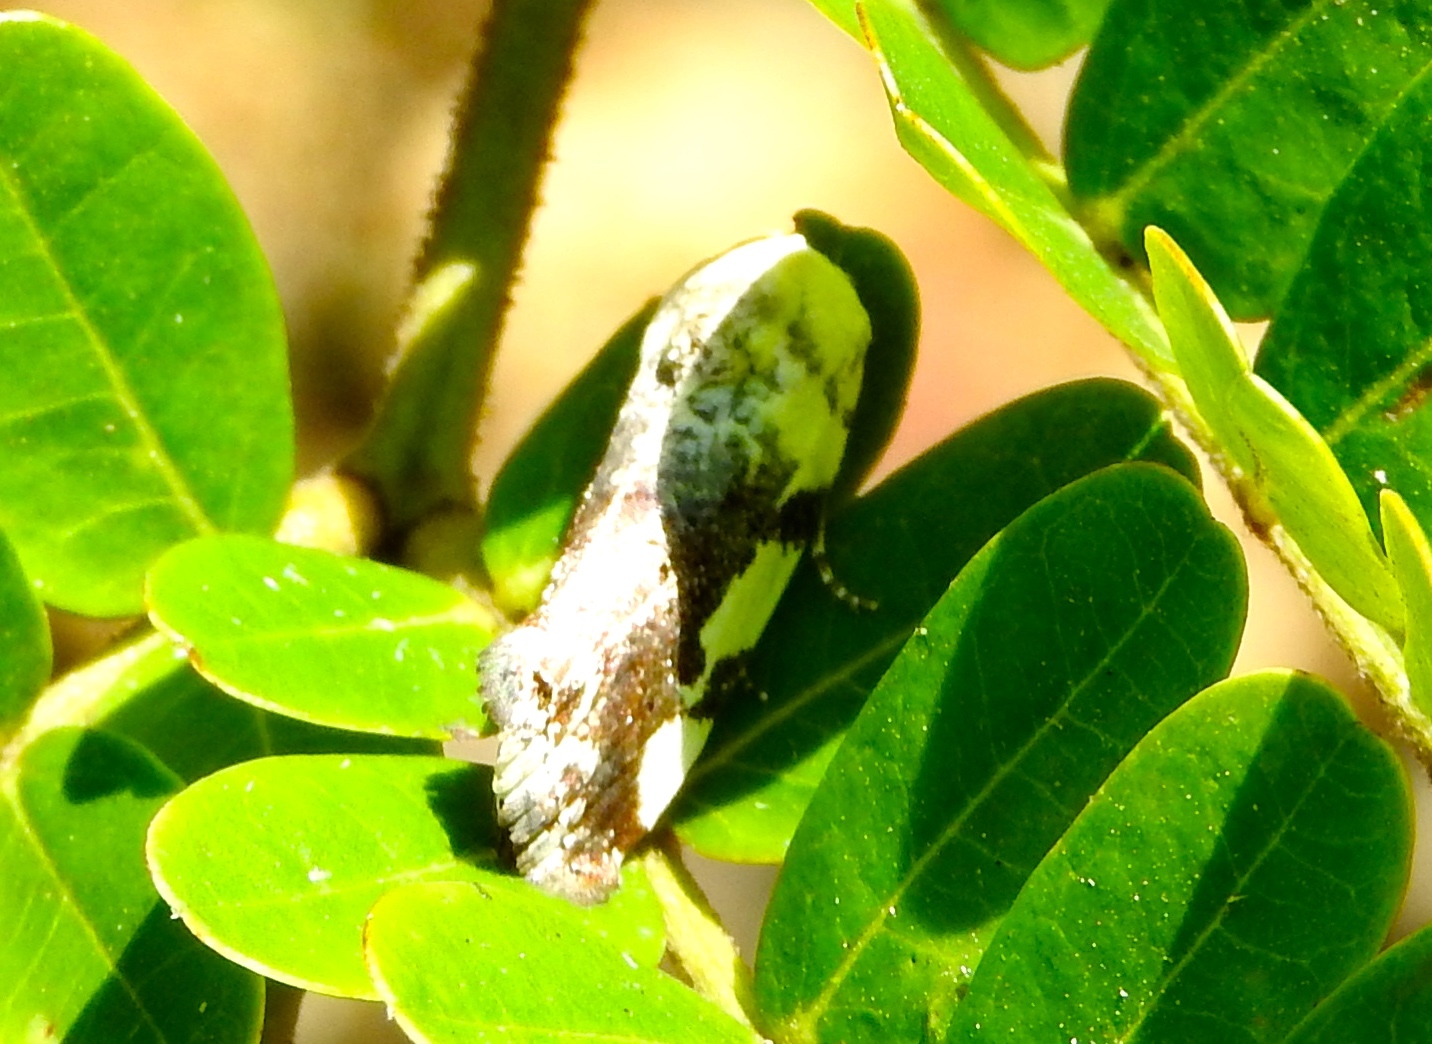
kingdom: Animalia
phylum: Arthropoda
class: Insecta
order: Lepidoptera
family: Noctuidae
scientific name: Noctuidae
